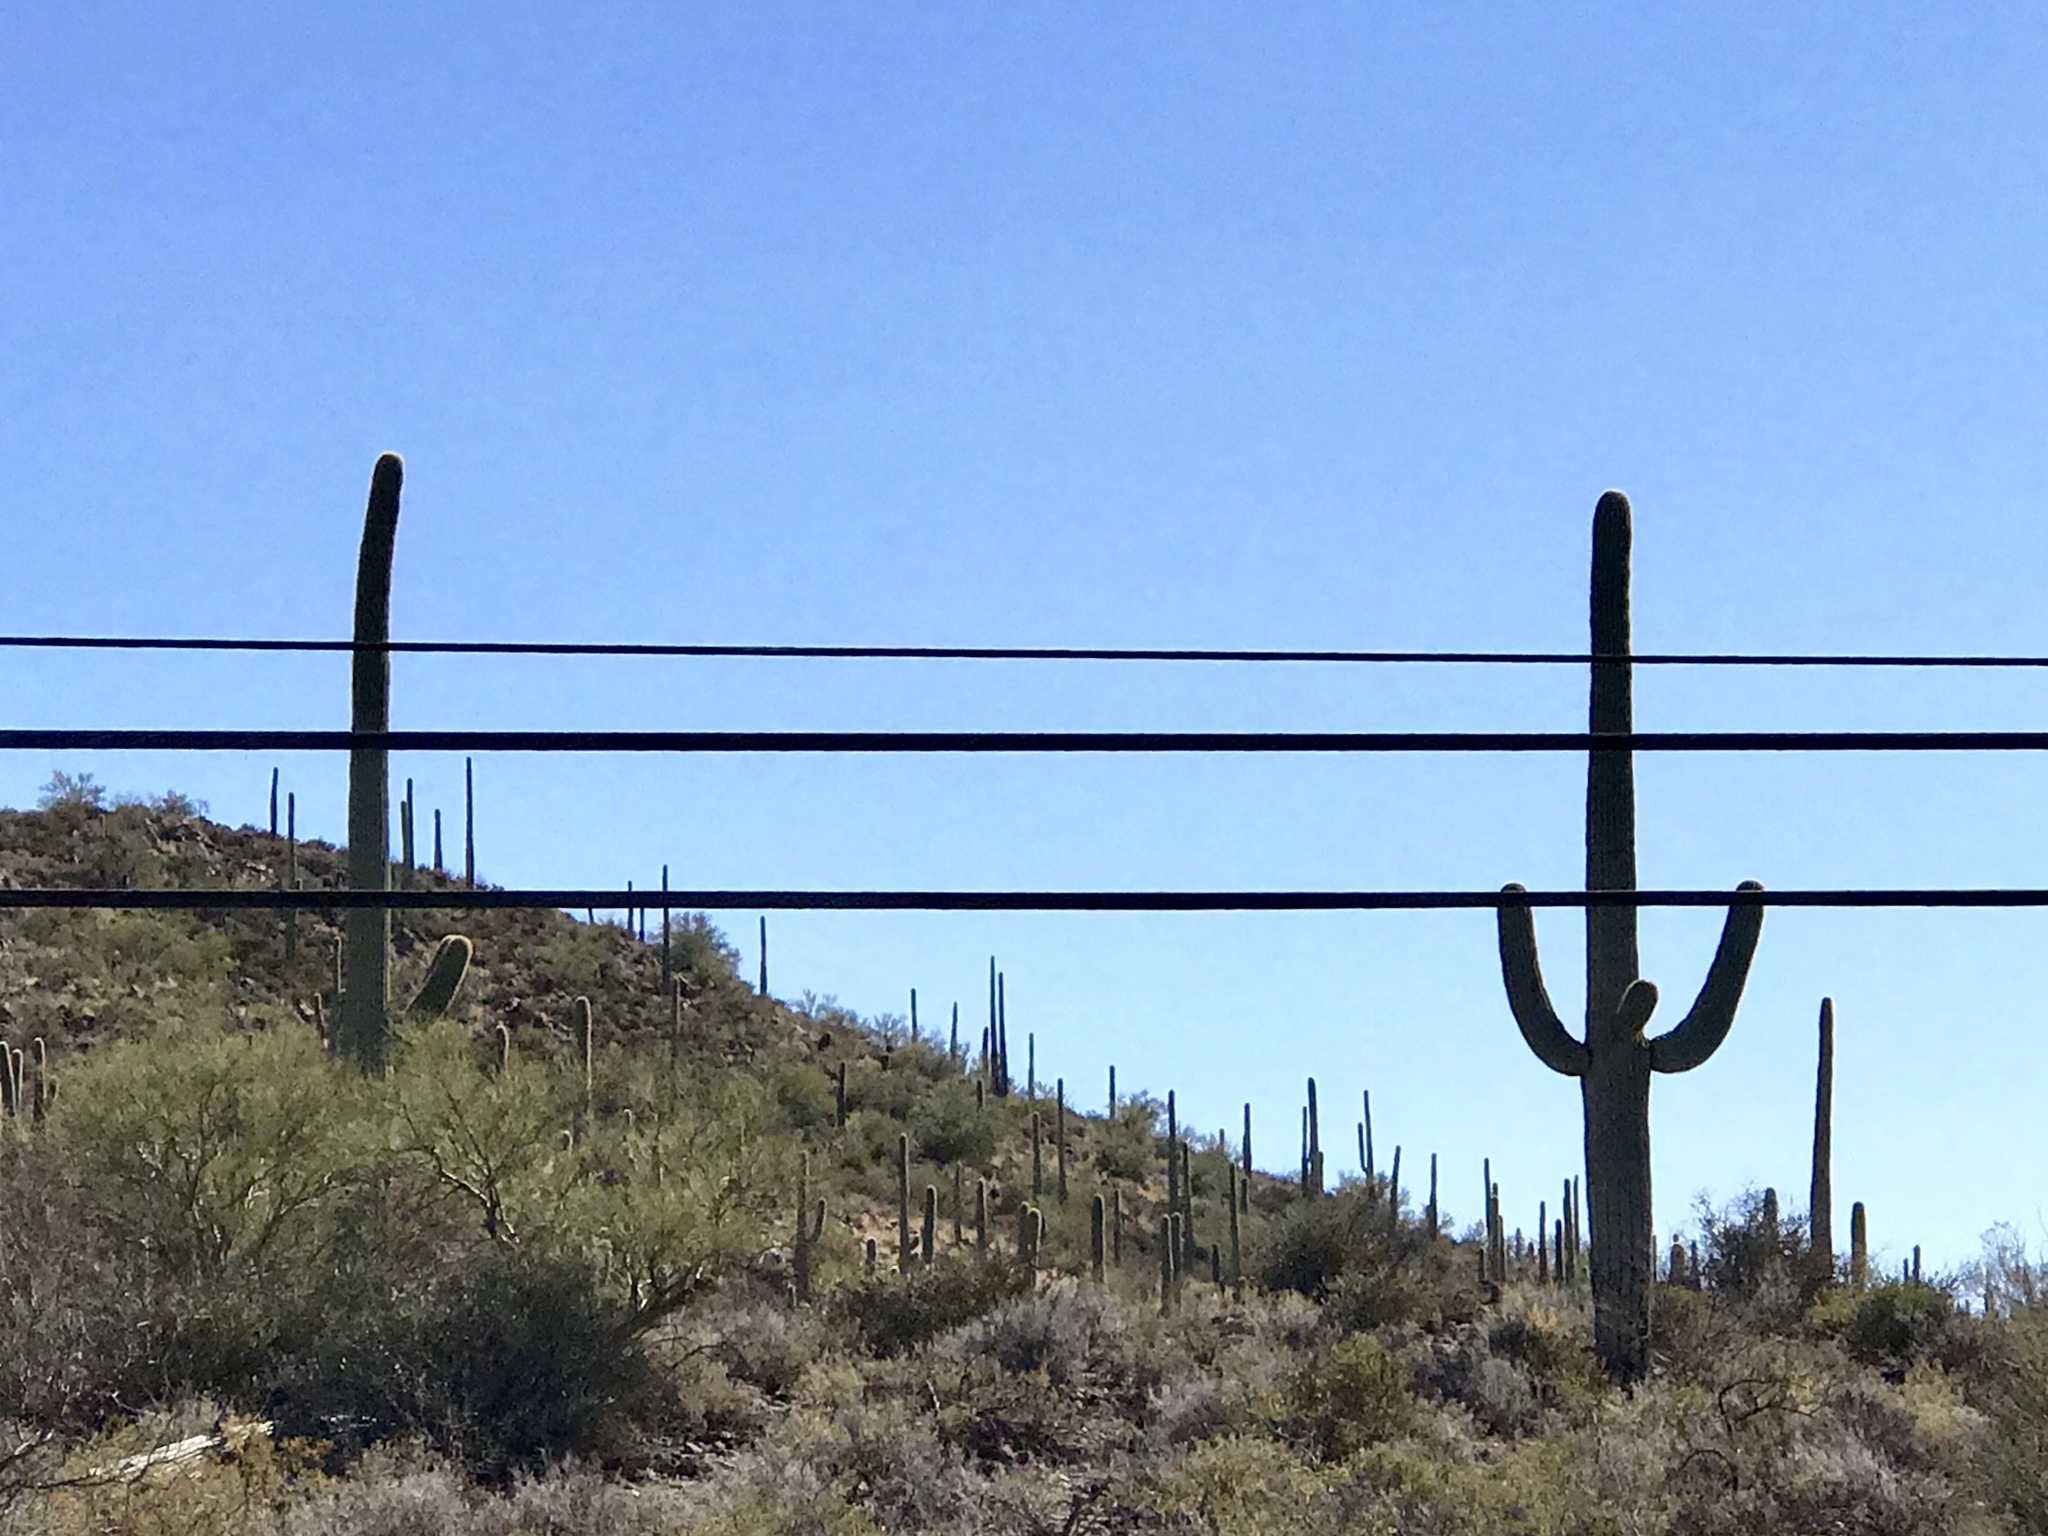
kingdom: Plantae
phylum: Tracheophyta
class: Magnoliopsida
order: Caryophyllales
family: Cactaceae
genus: Carnegiea
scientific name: Carnegiea gigantea
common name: Saguaro
